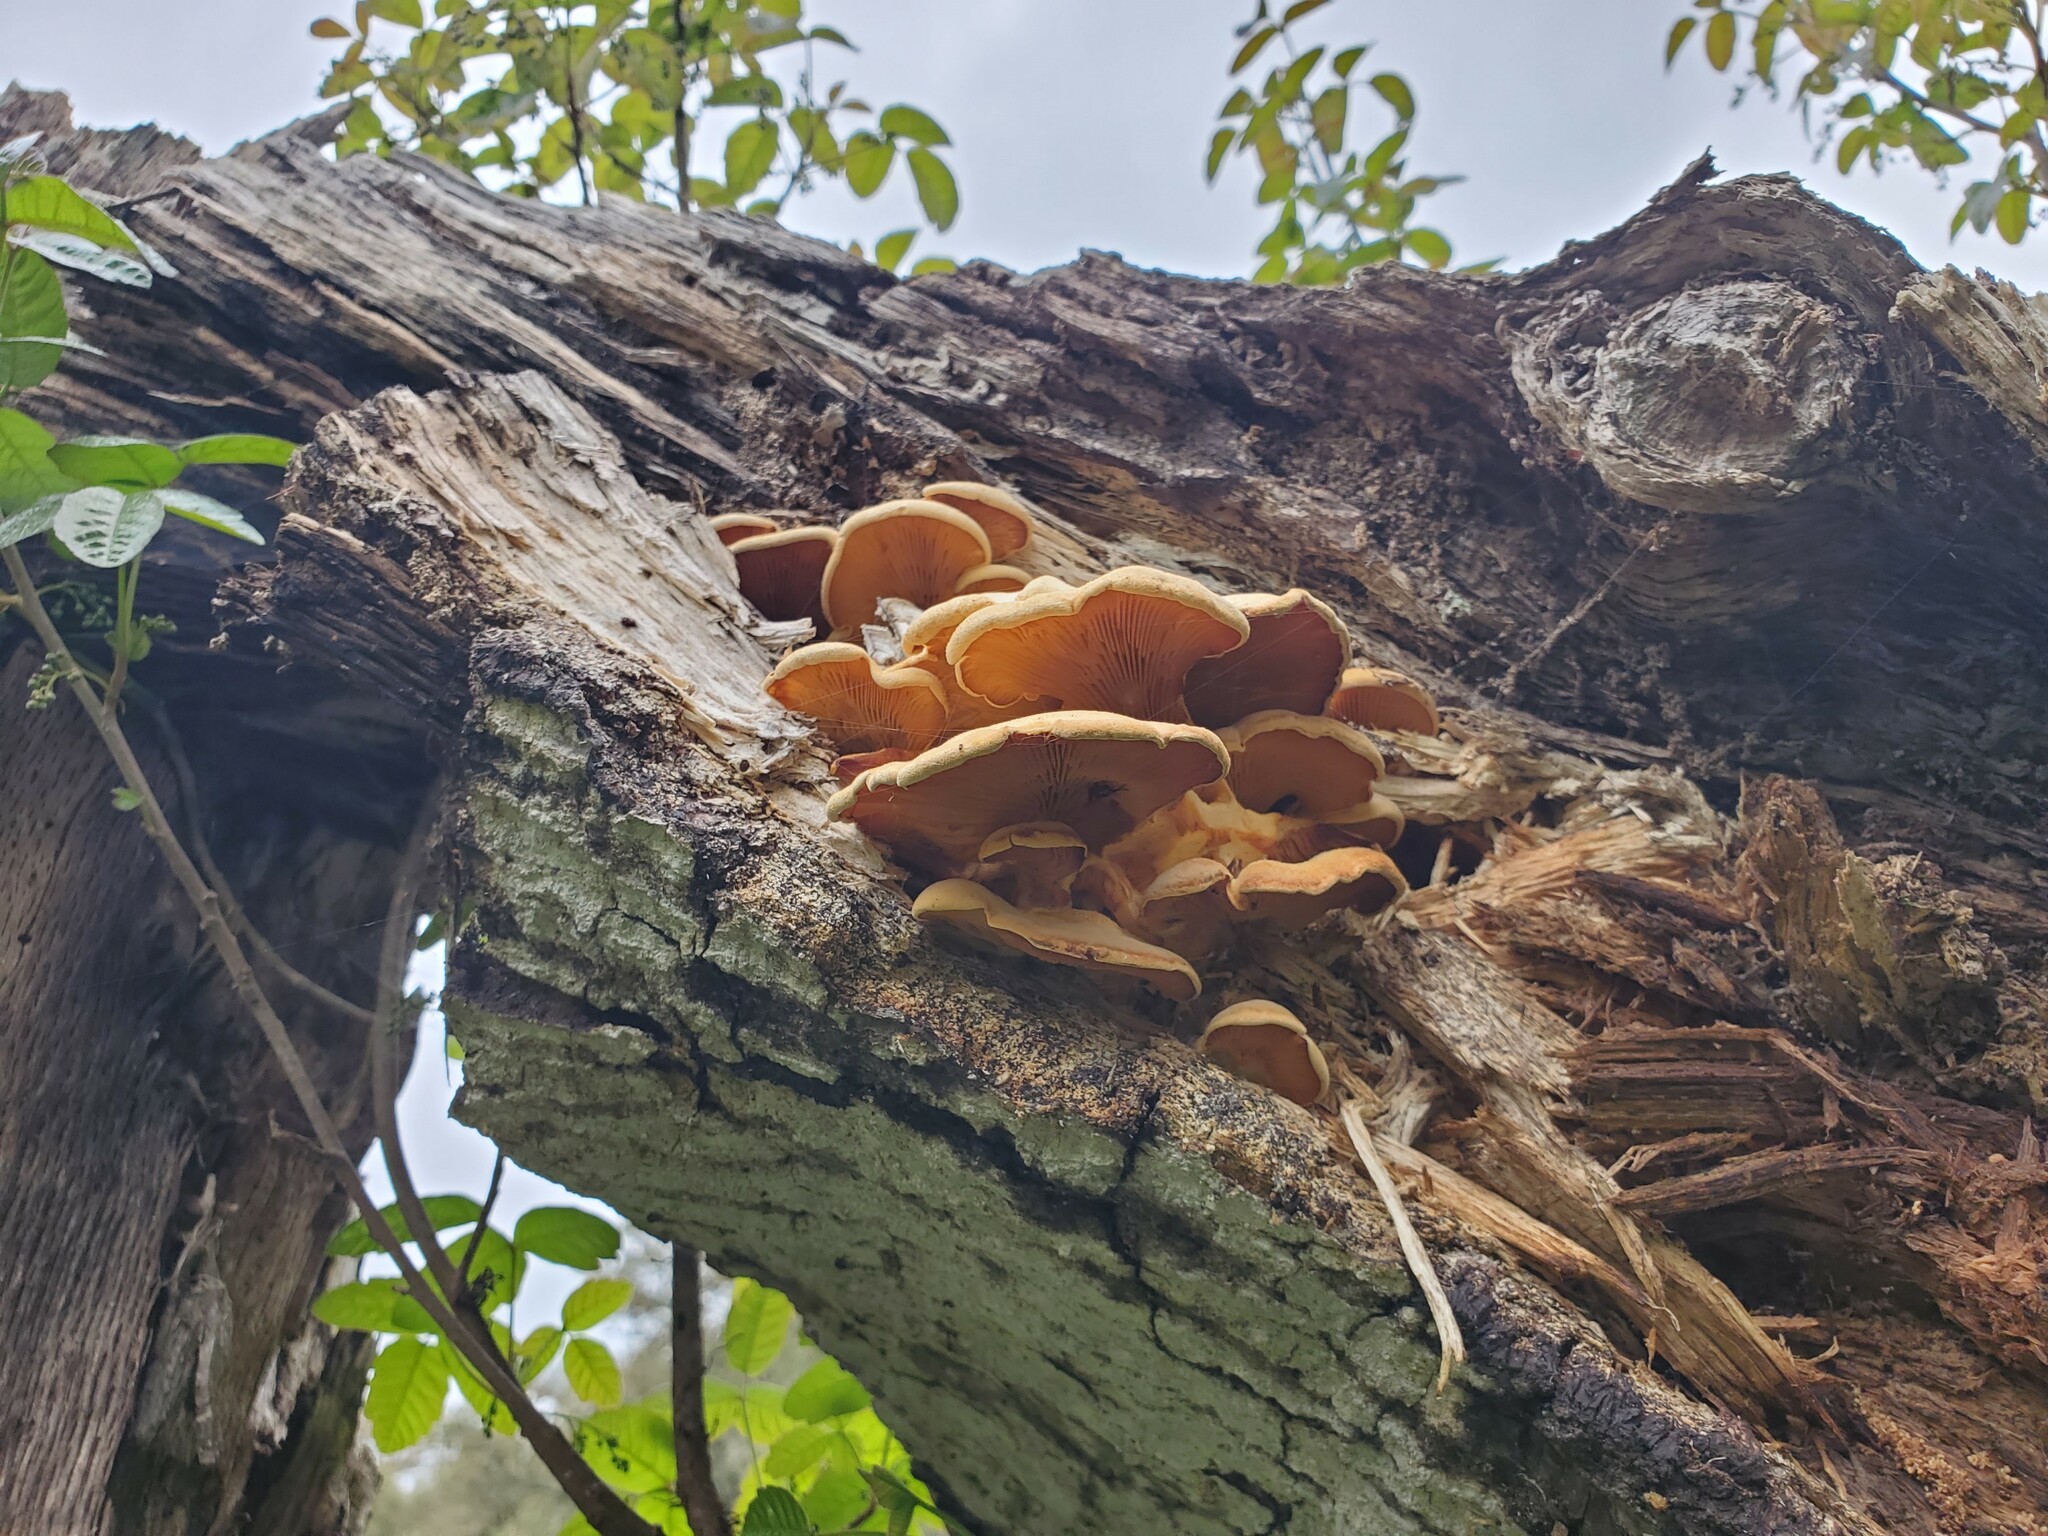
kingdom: Fungi
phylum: Basidiomycota
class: Agaricomycetes
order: Agaricales
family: Phyllotopsidaceae
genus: Phyllotopsis
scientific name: Phyllotopsis nidulans
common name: Orange mock oyster
